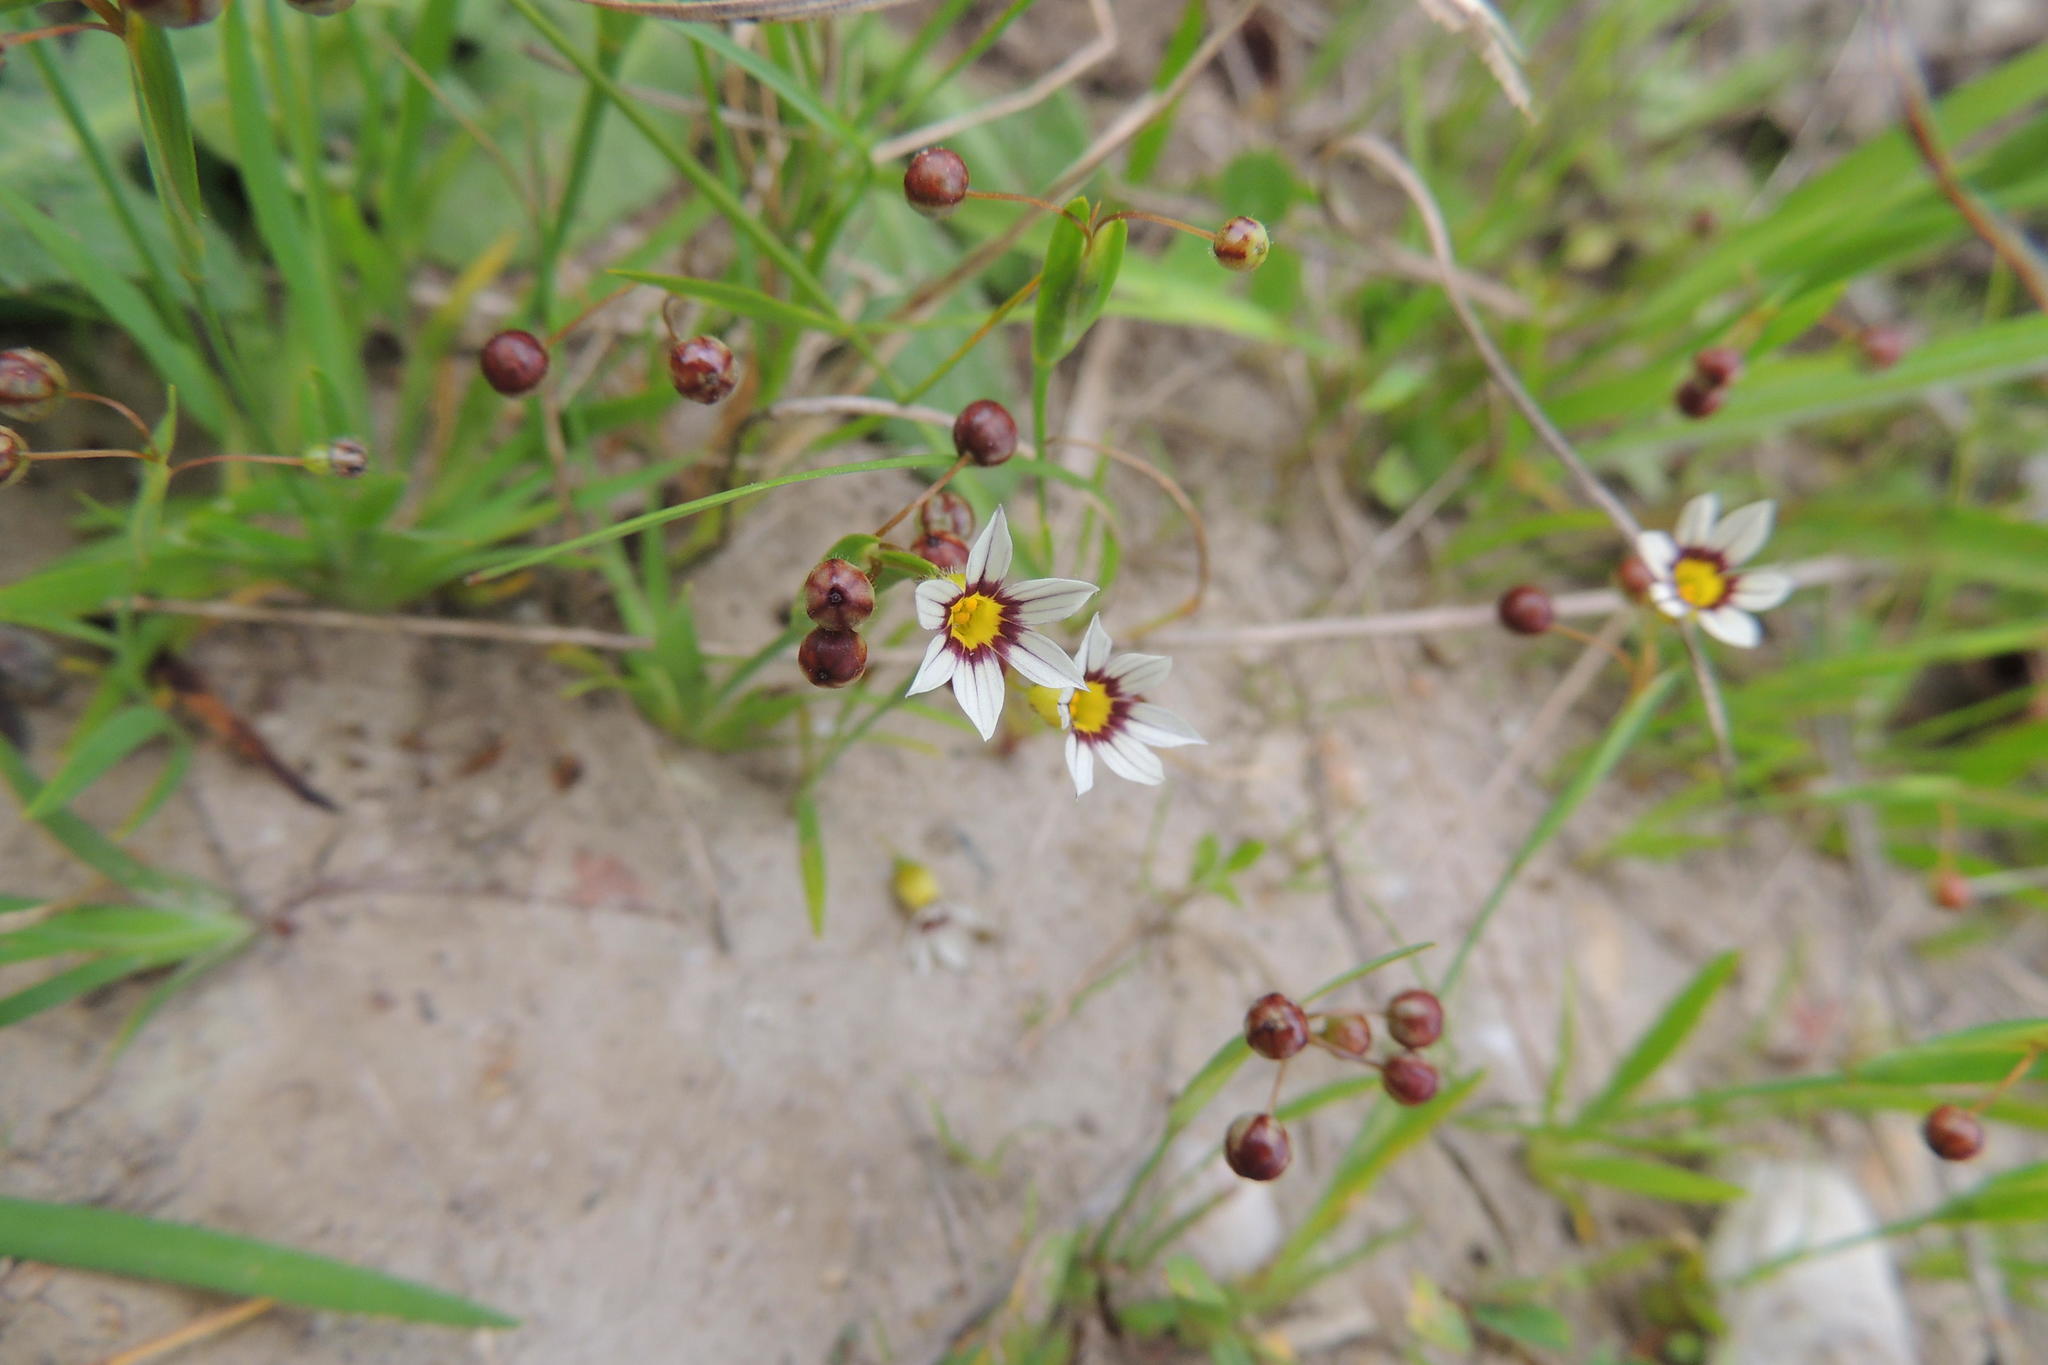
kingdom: Plantae
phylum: Tracheophyta
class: Liliopsida
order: Asparagales
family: Iridaceae
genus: Sisyrinchium
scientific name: Sisyrinchium micranthum
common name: Bermuda pigroot
